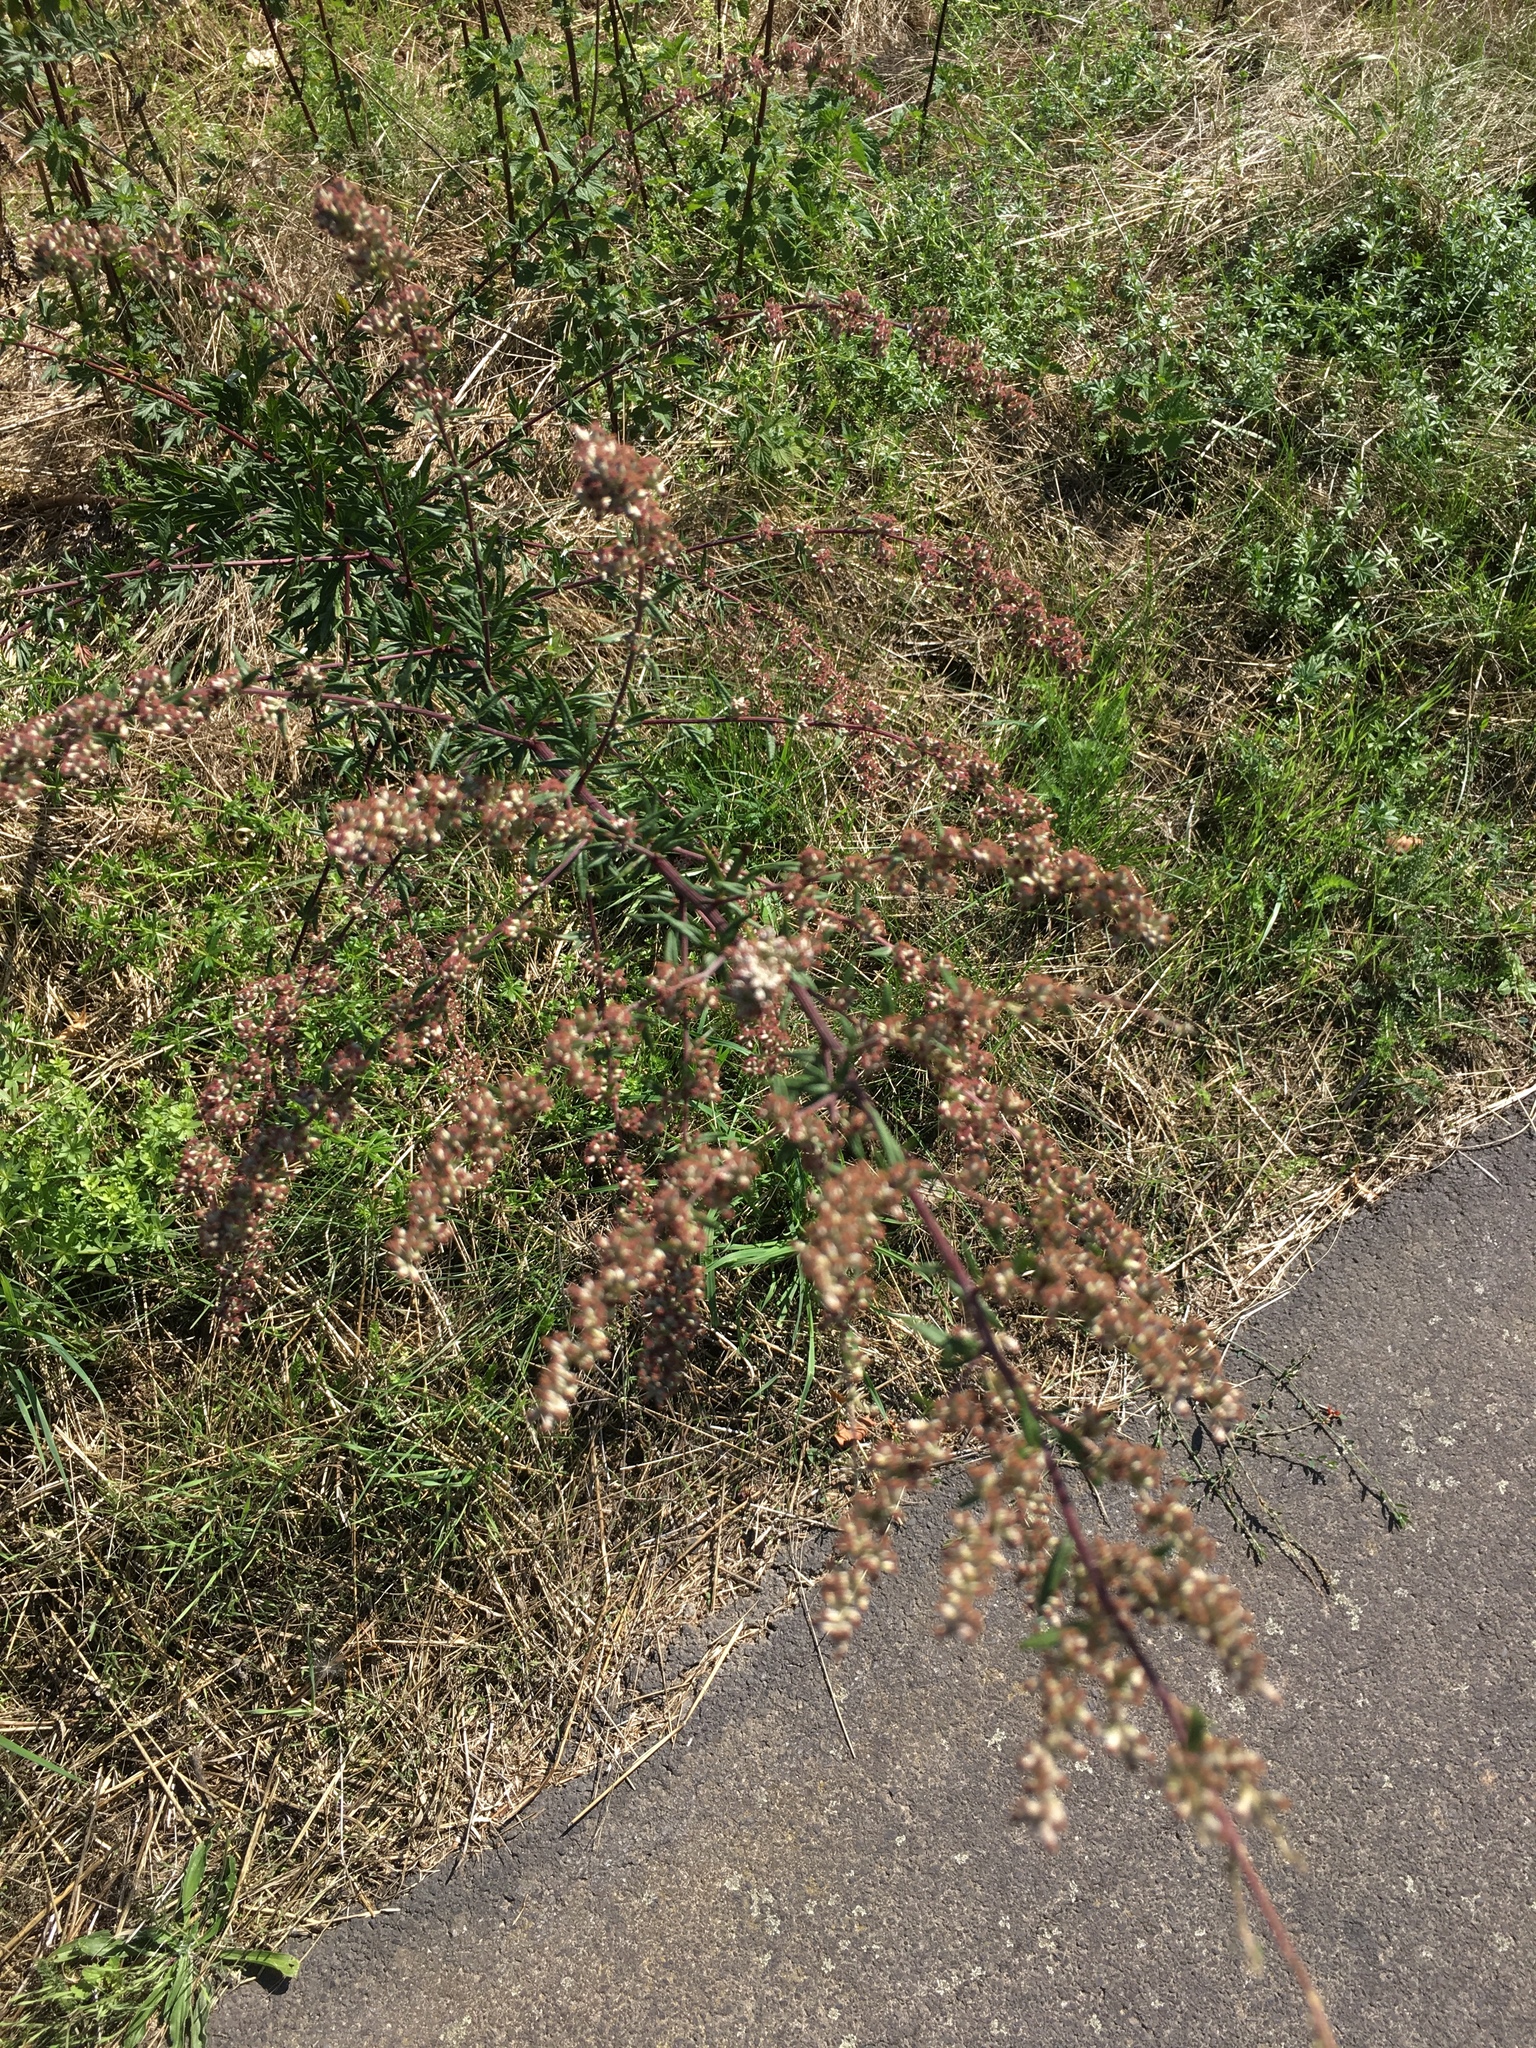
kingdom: Plantae
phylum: Tracheophyta
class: Magnoliopsida
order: Asterales
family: Asteraceae
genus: Artemisia
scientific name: Artemisia vulgaris
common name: Mugwort
